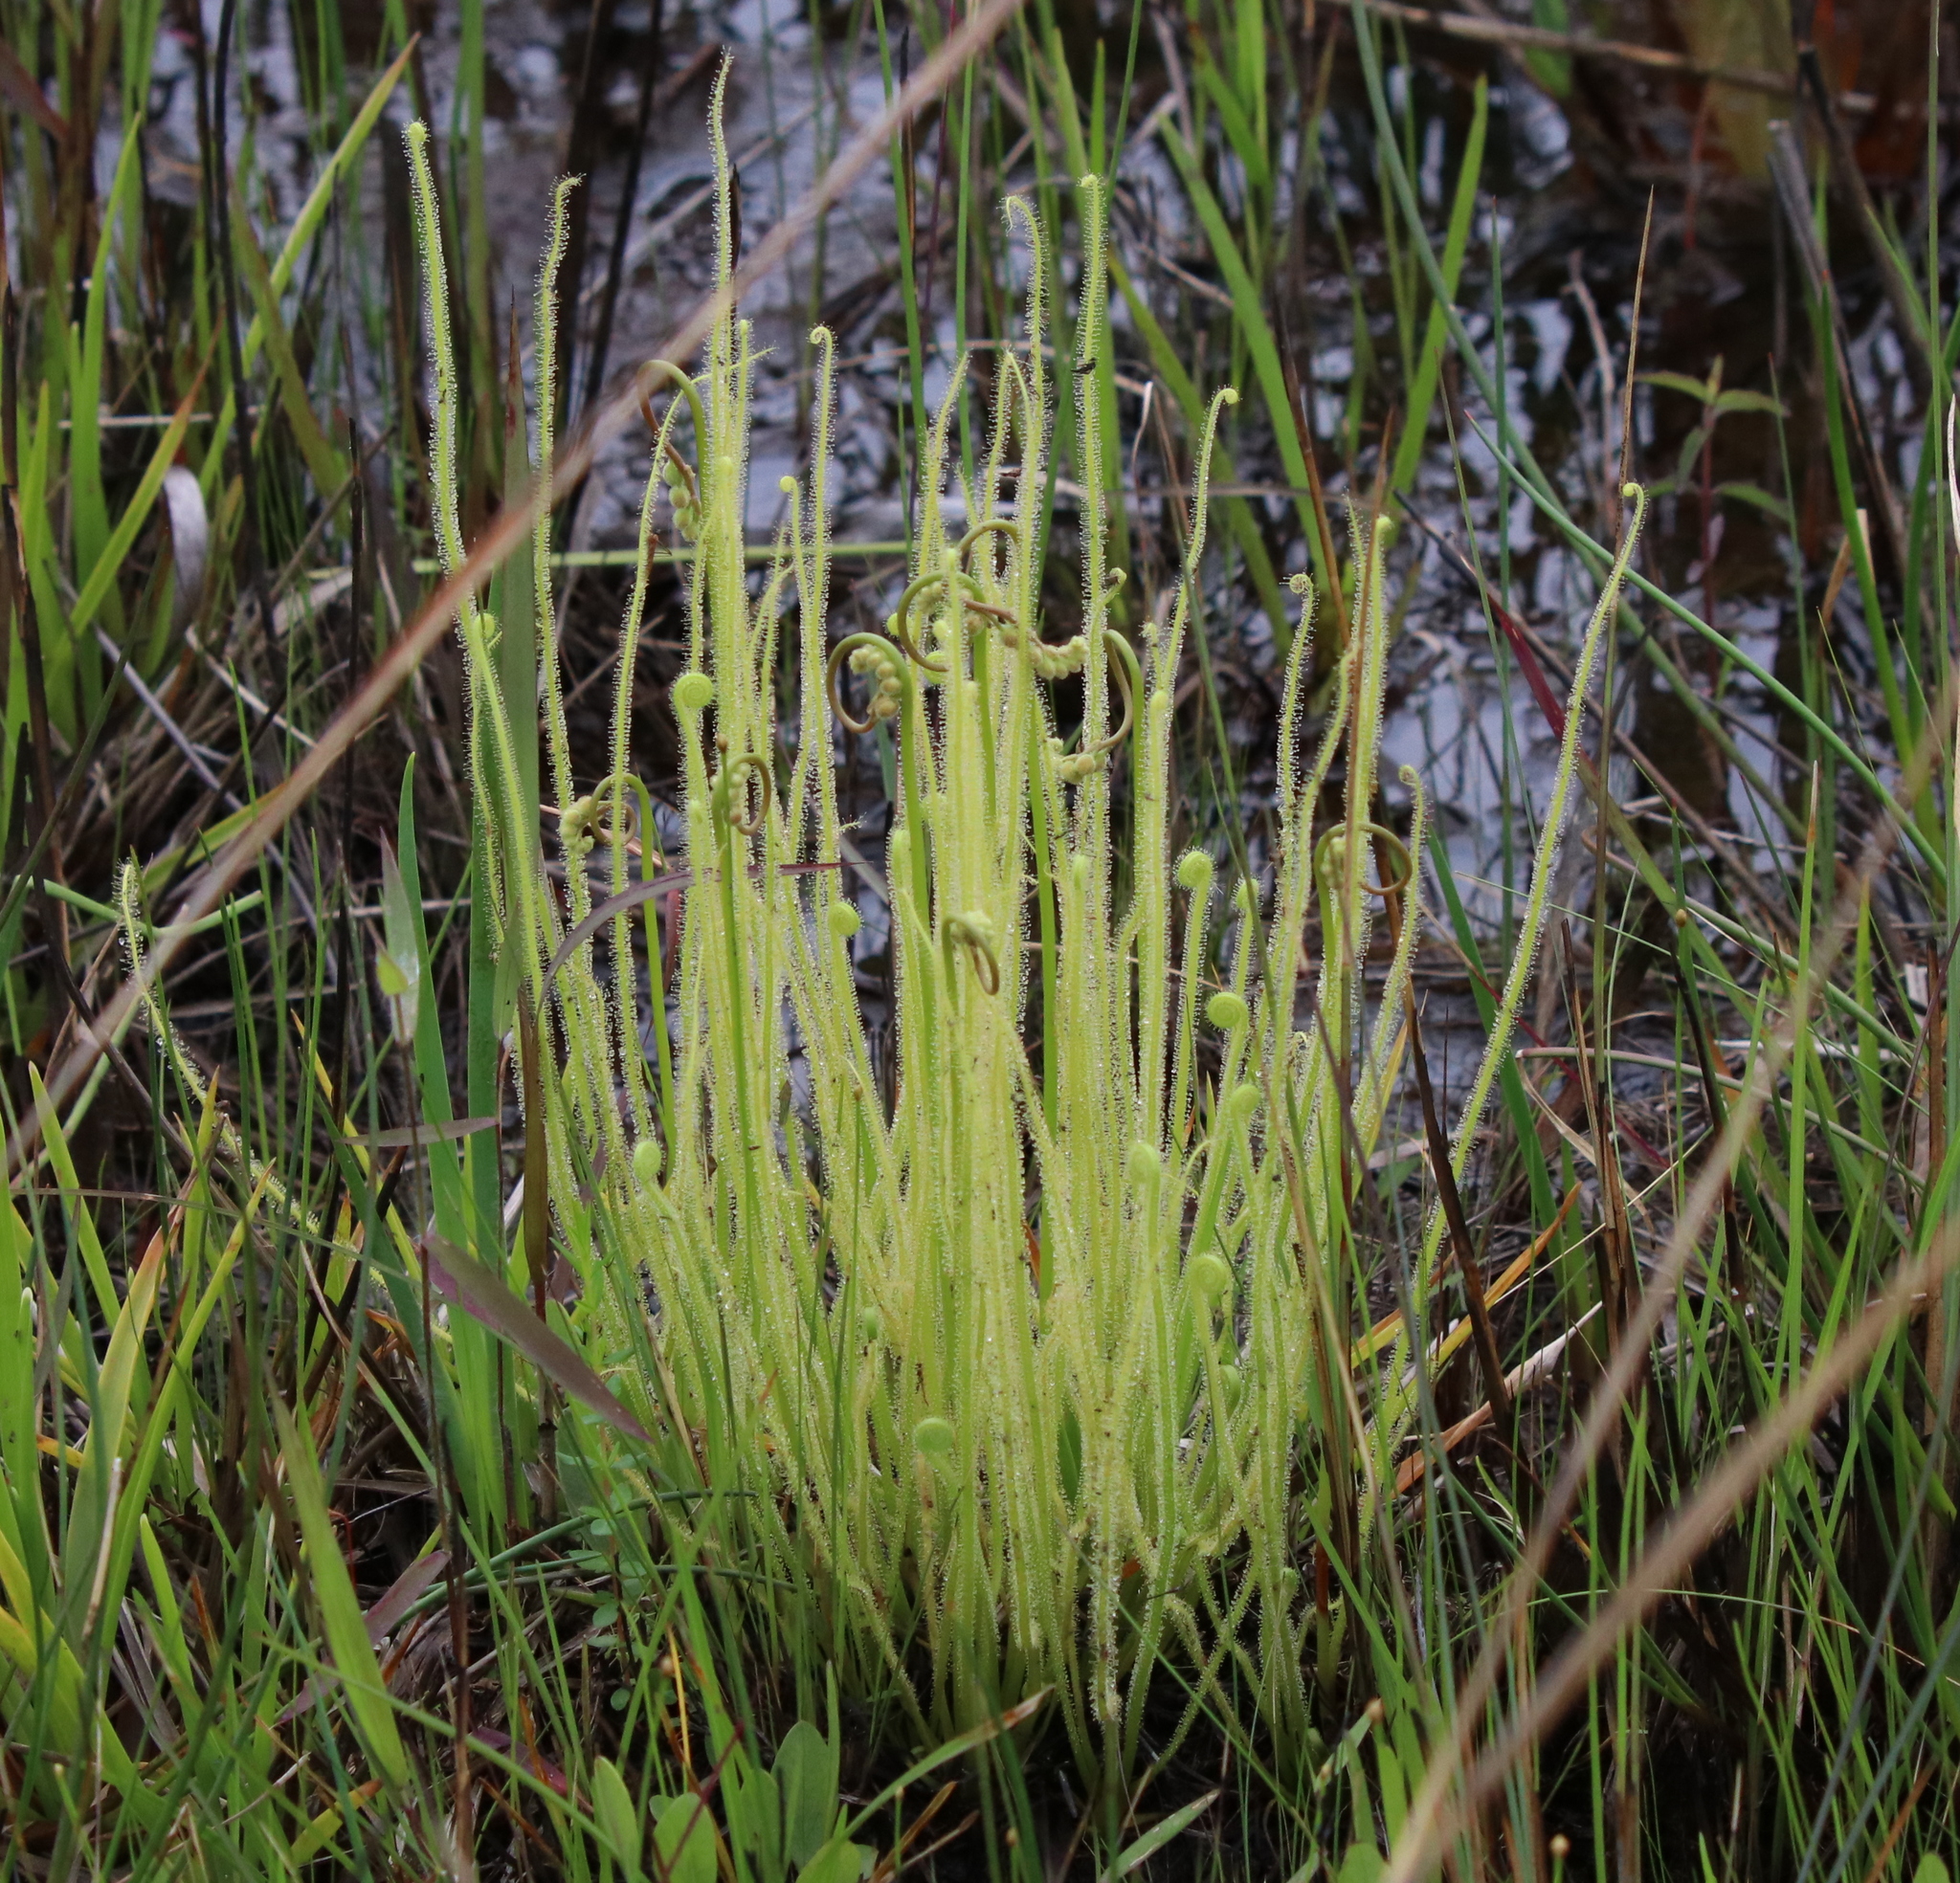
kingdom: Plantae
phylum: Tracheophyta
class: Magnoliopsida
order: Caryophyllales
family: Droseraceae
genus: Drosera
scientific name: Drosera filiformis
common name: Dew-thread
